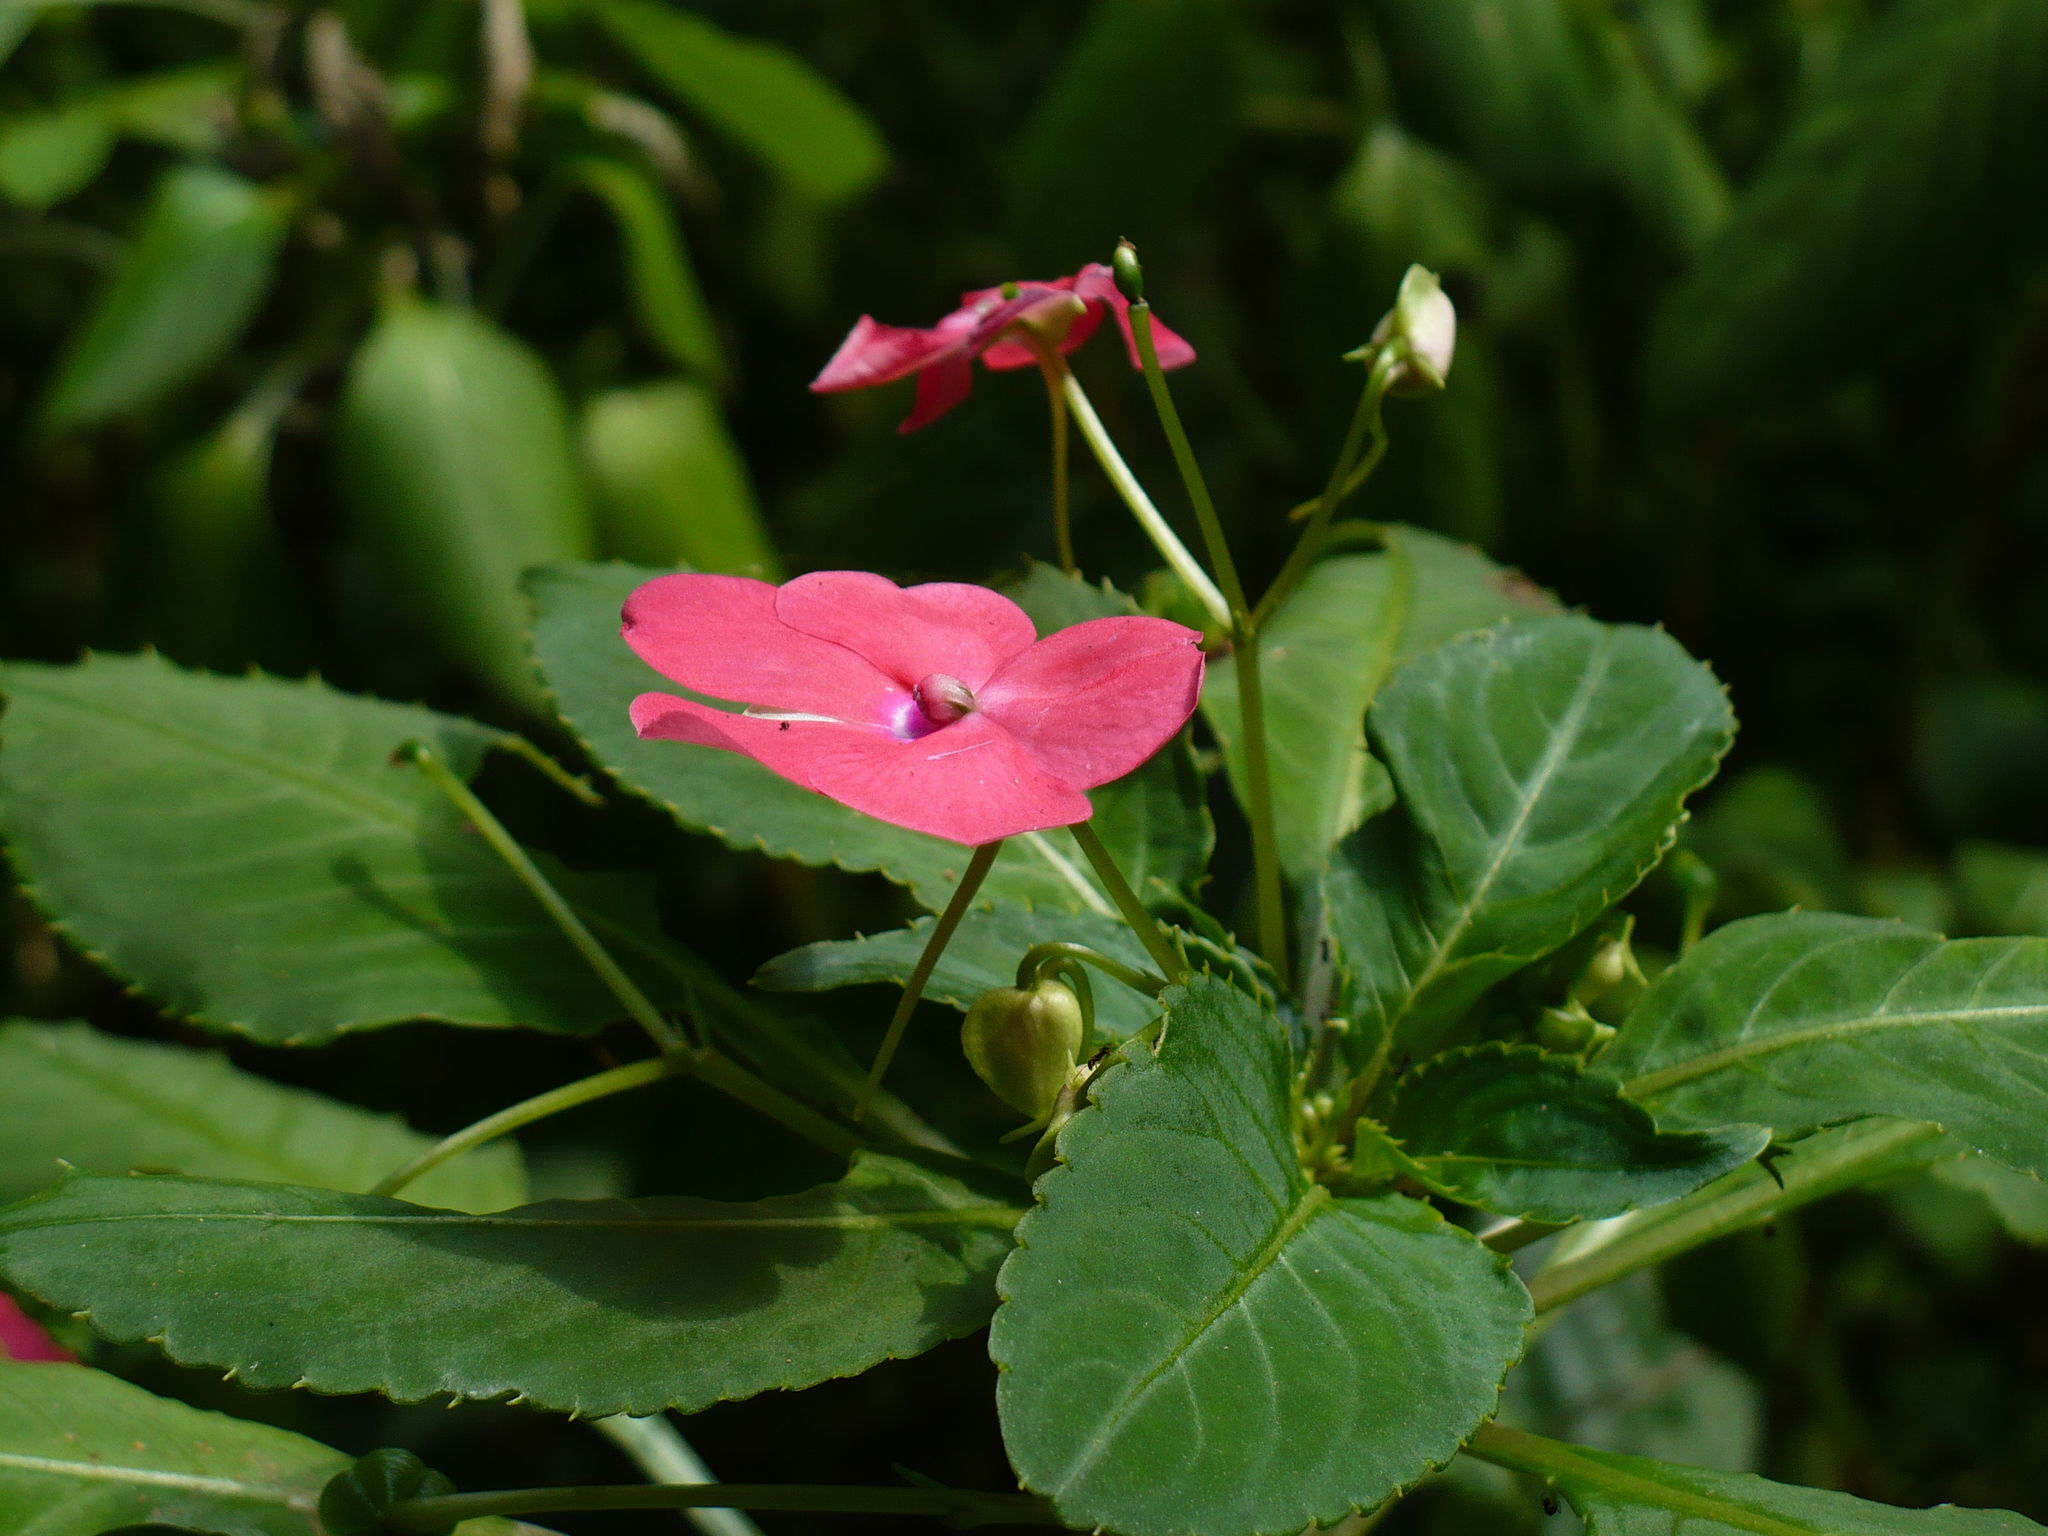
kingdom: Plantae
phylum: Tracheophyta
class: Magnoliopsida
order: Ericales
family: Balsaminaceae
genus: Impatiens
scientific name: Impatiens walleriana
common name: Buzzy lizzy
